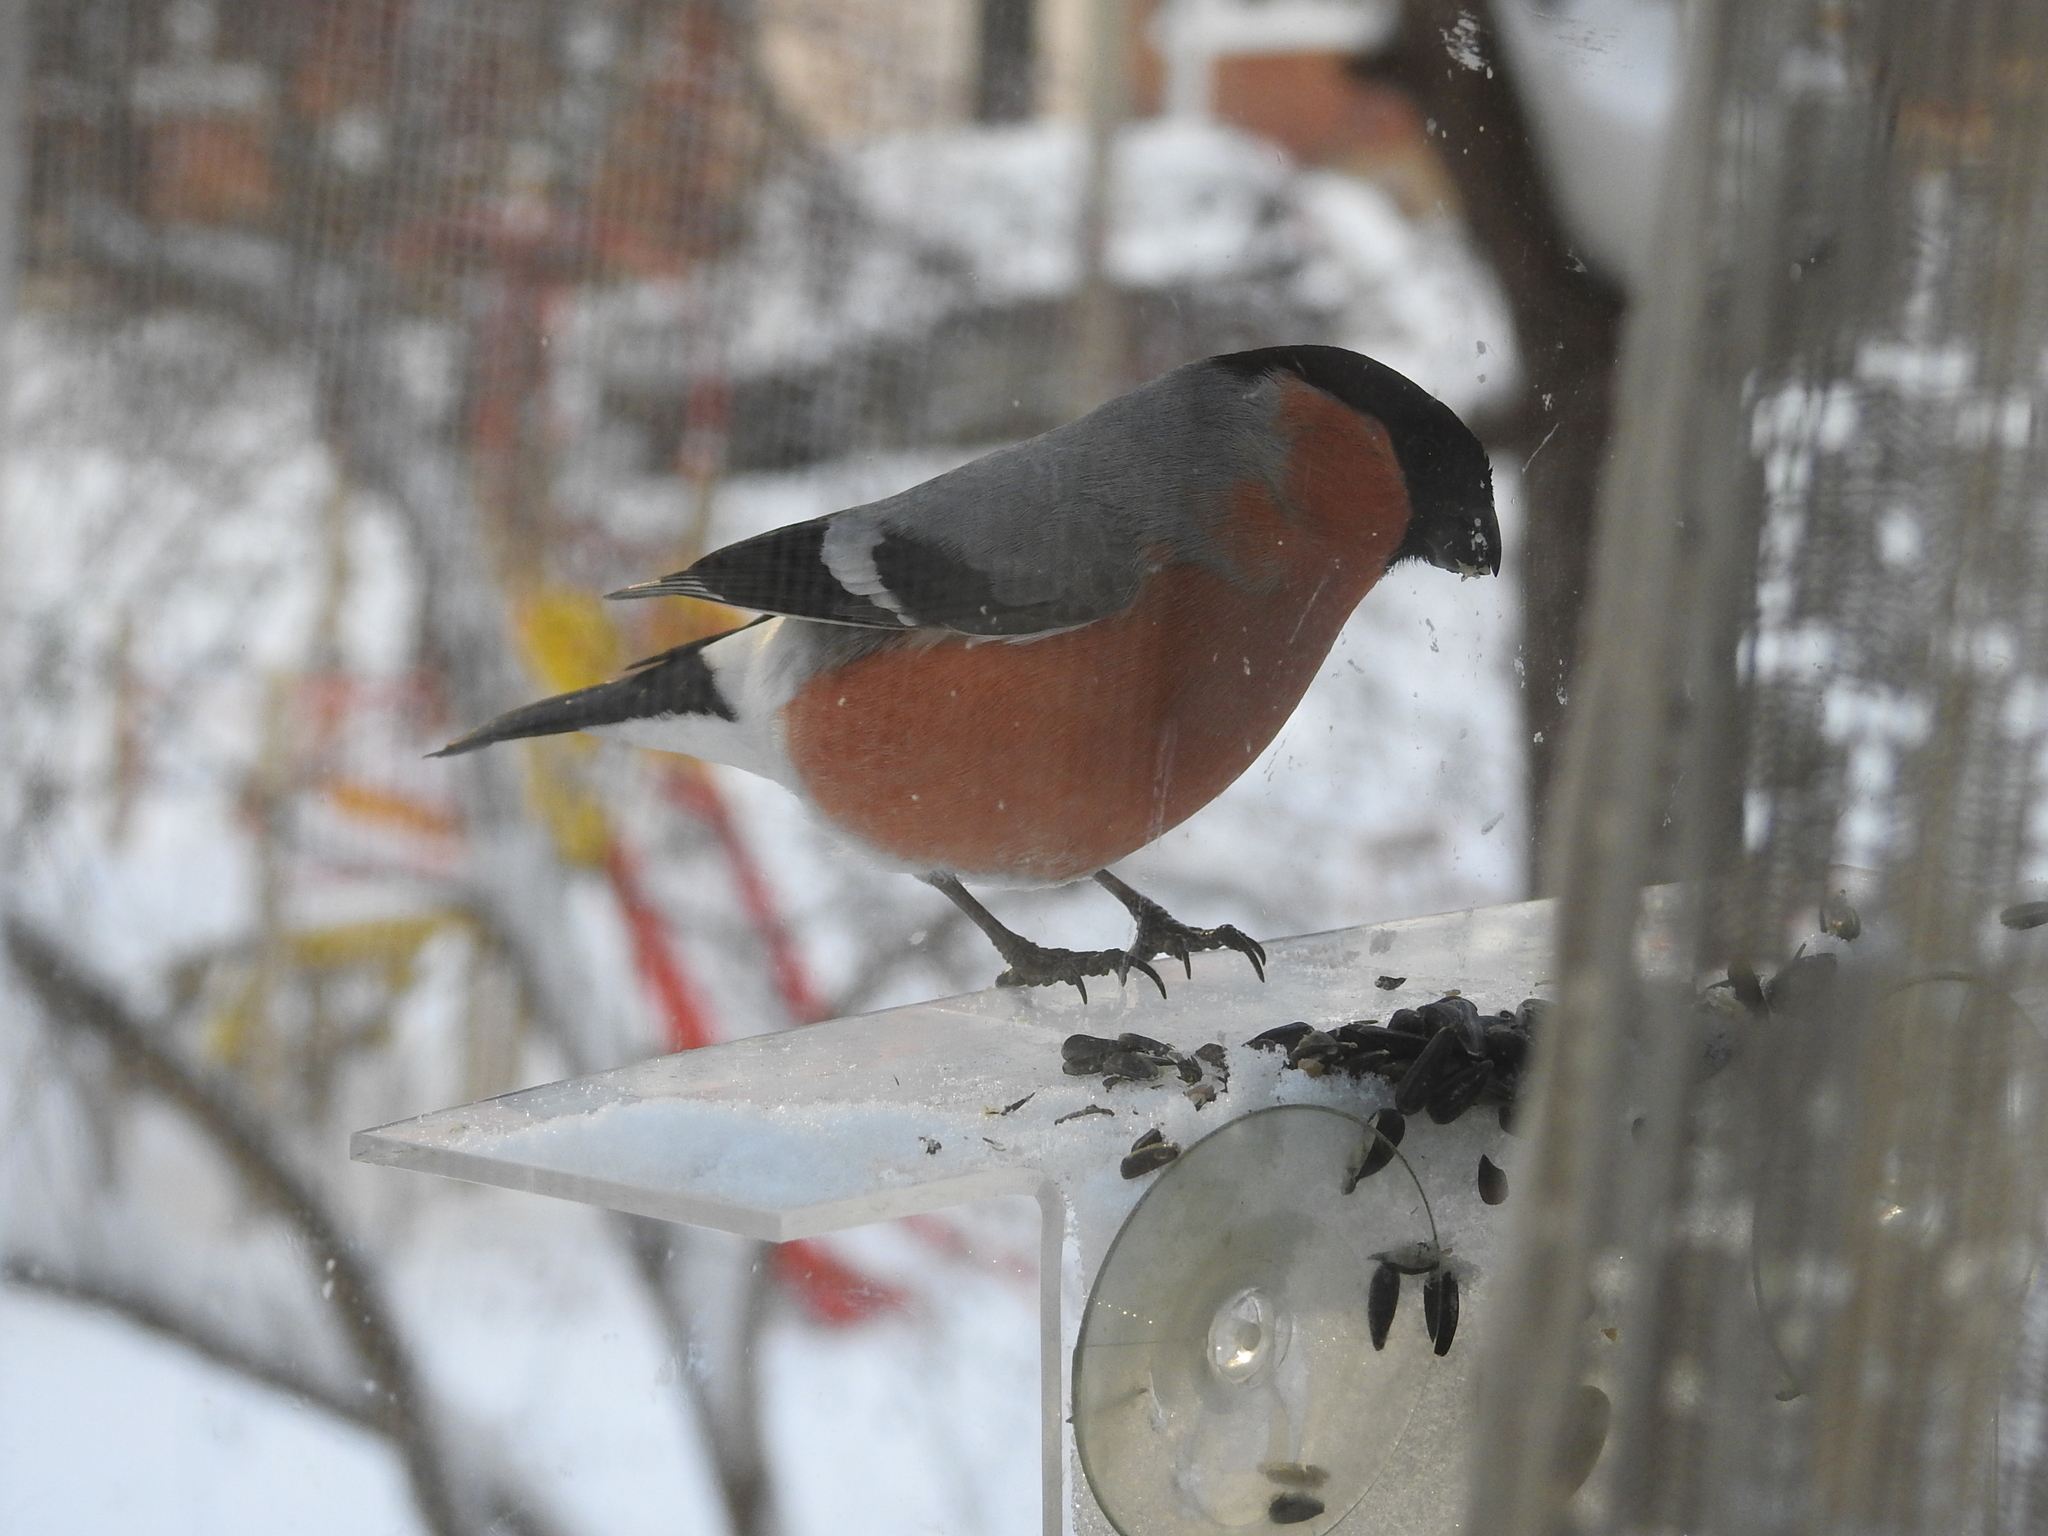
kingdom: Animalia
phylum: Chordata
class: Aves
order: Passeriformes
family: Fringillidae
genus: Pyrrhula
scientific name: Pyrrhula pyrrhula
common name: Eurasian bullfinch
